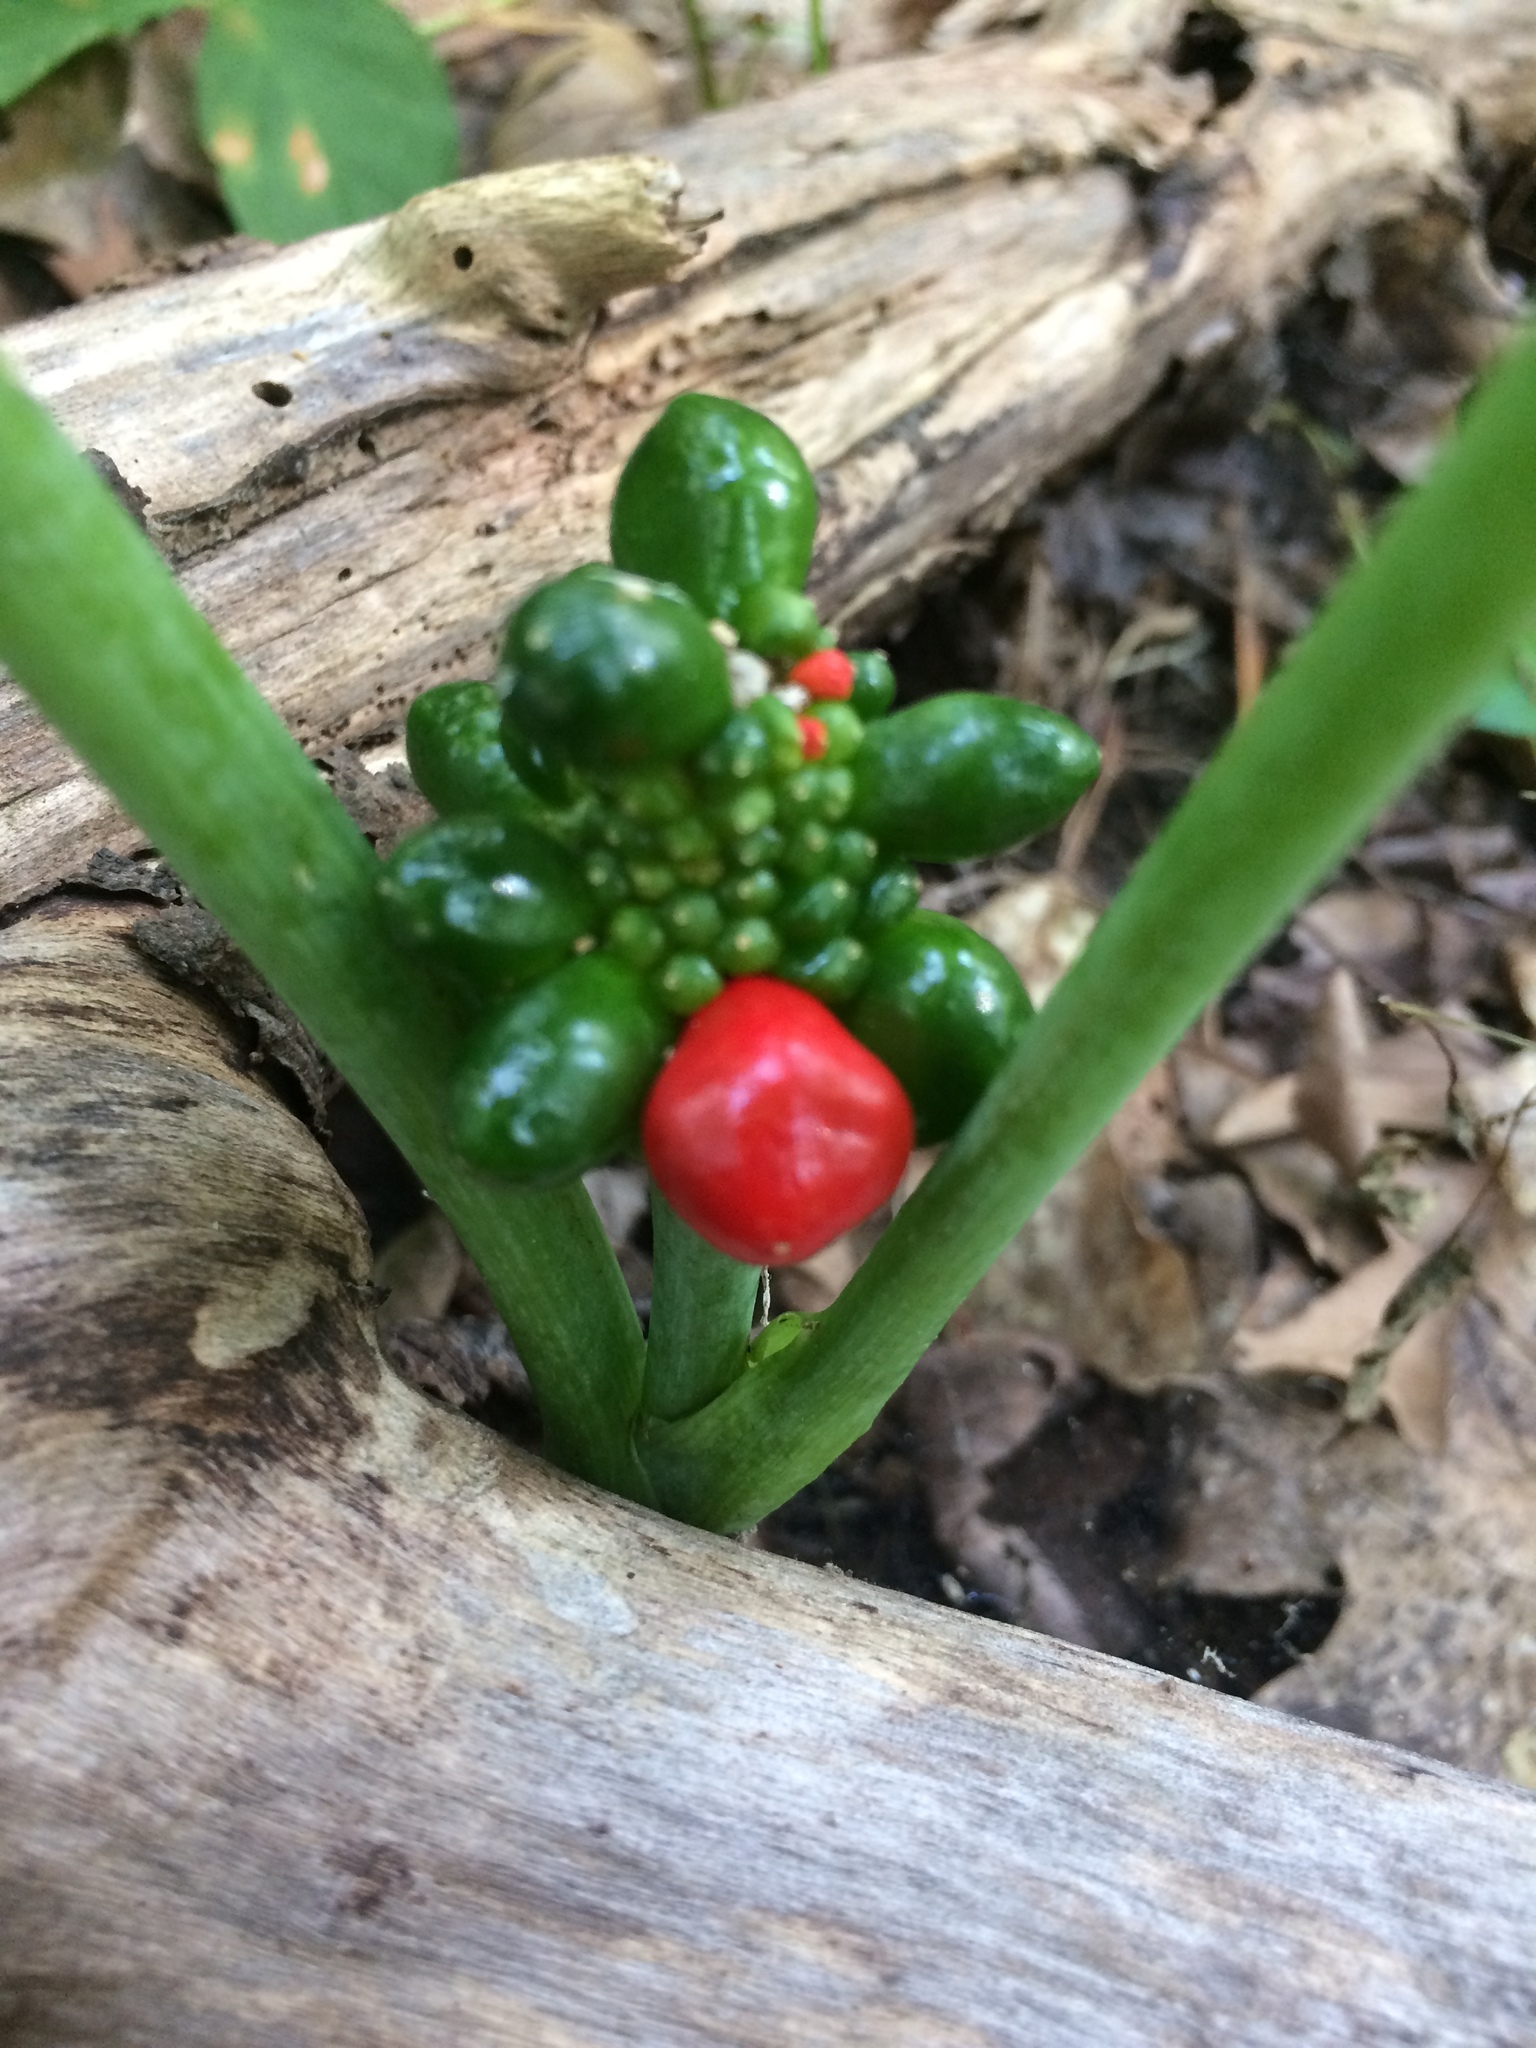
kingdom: Plantae
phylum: Tracheophyta
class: Liliopsida
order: Alismatales
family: Araceae
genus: Arisaema
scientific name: Arisaema triphyllum
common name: Jack-in-the-pulpit
